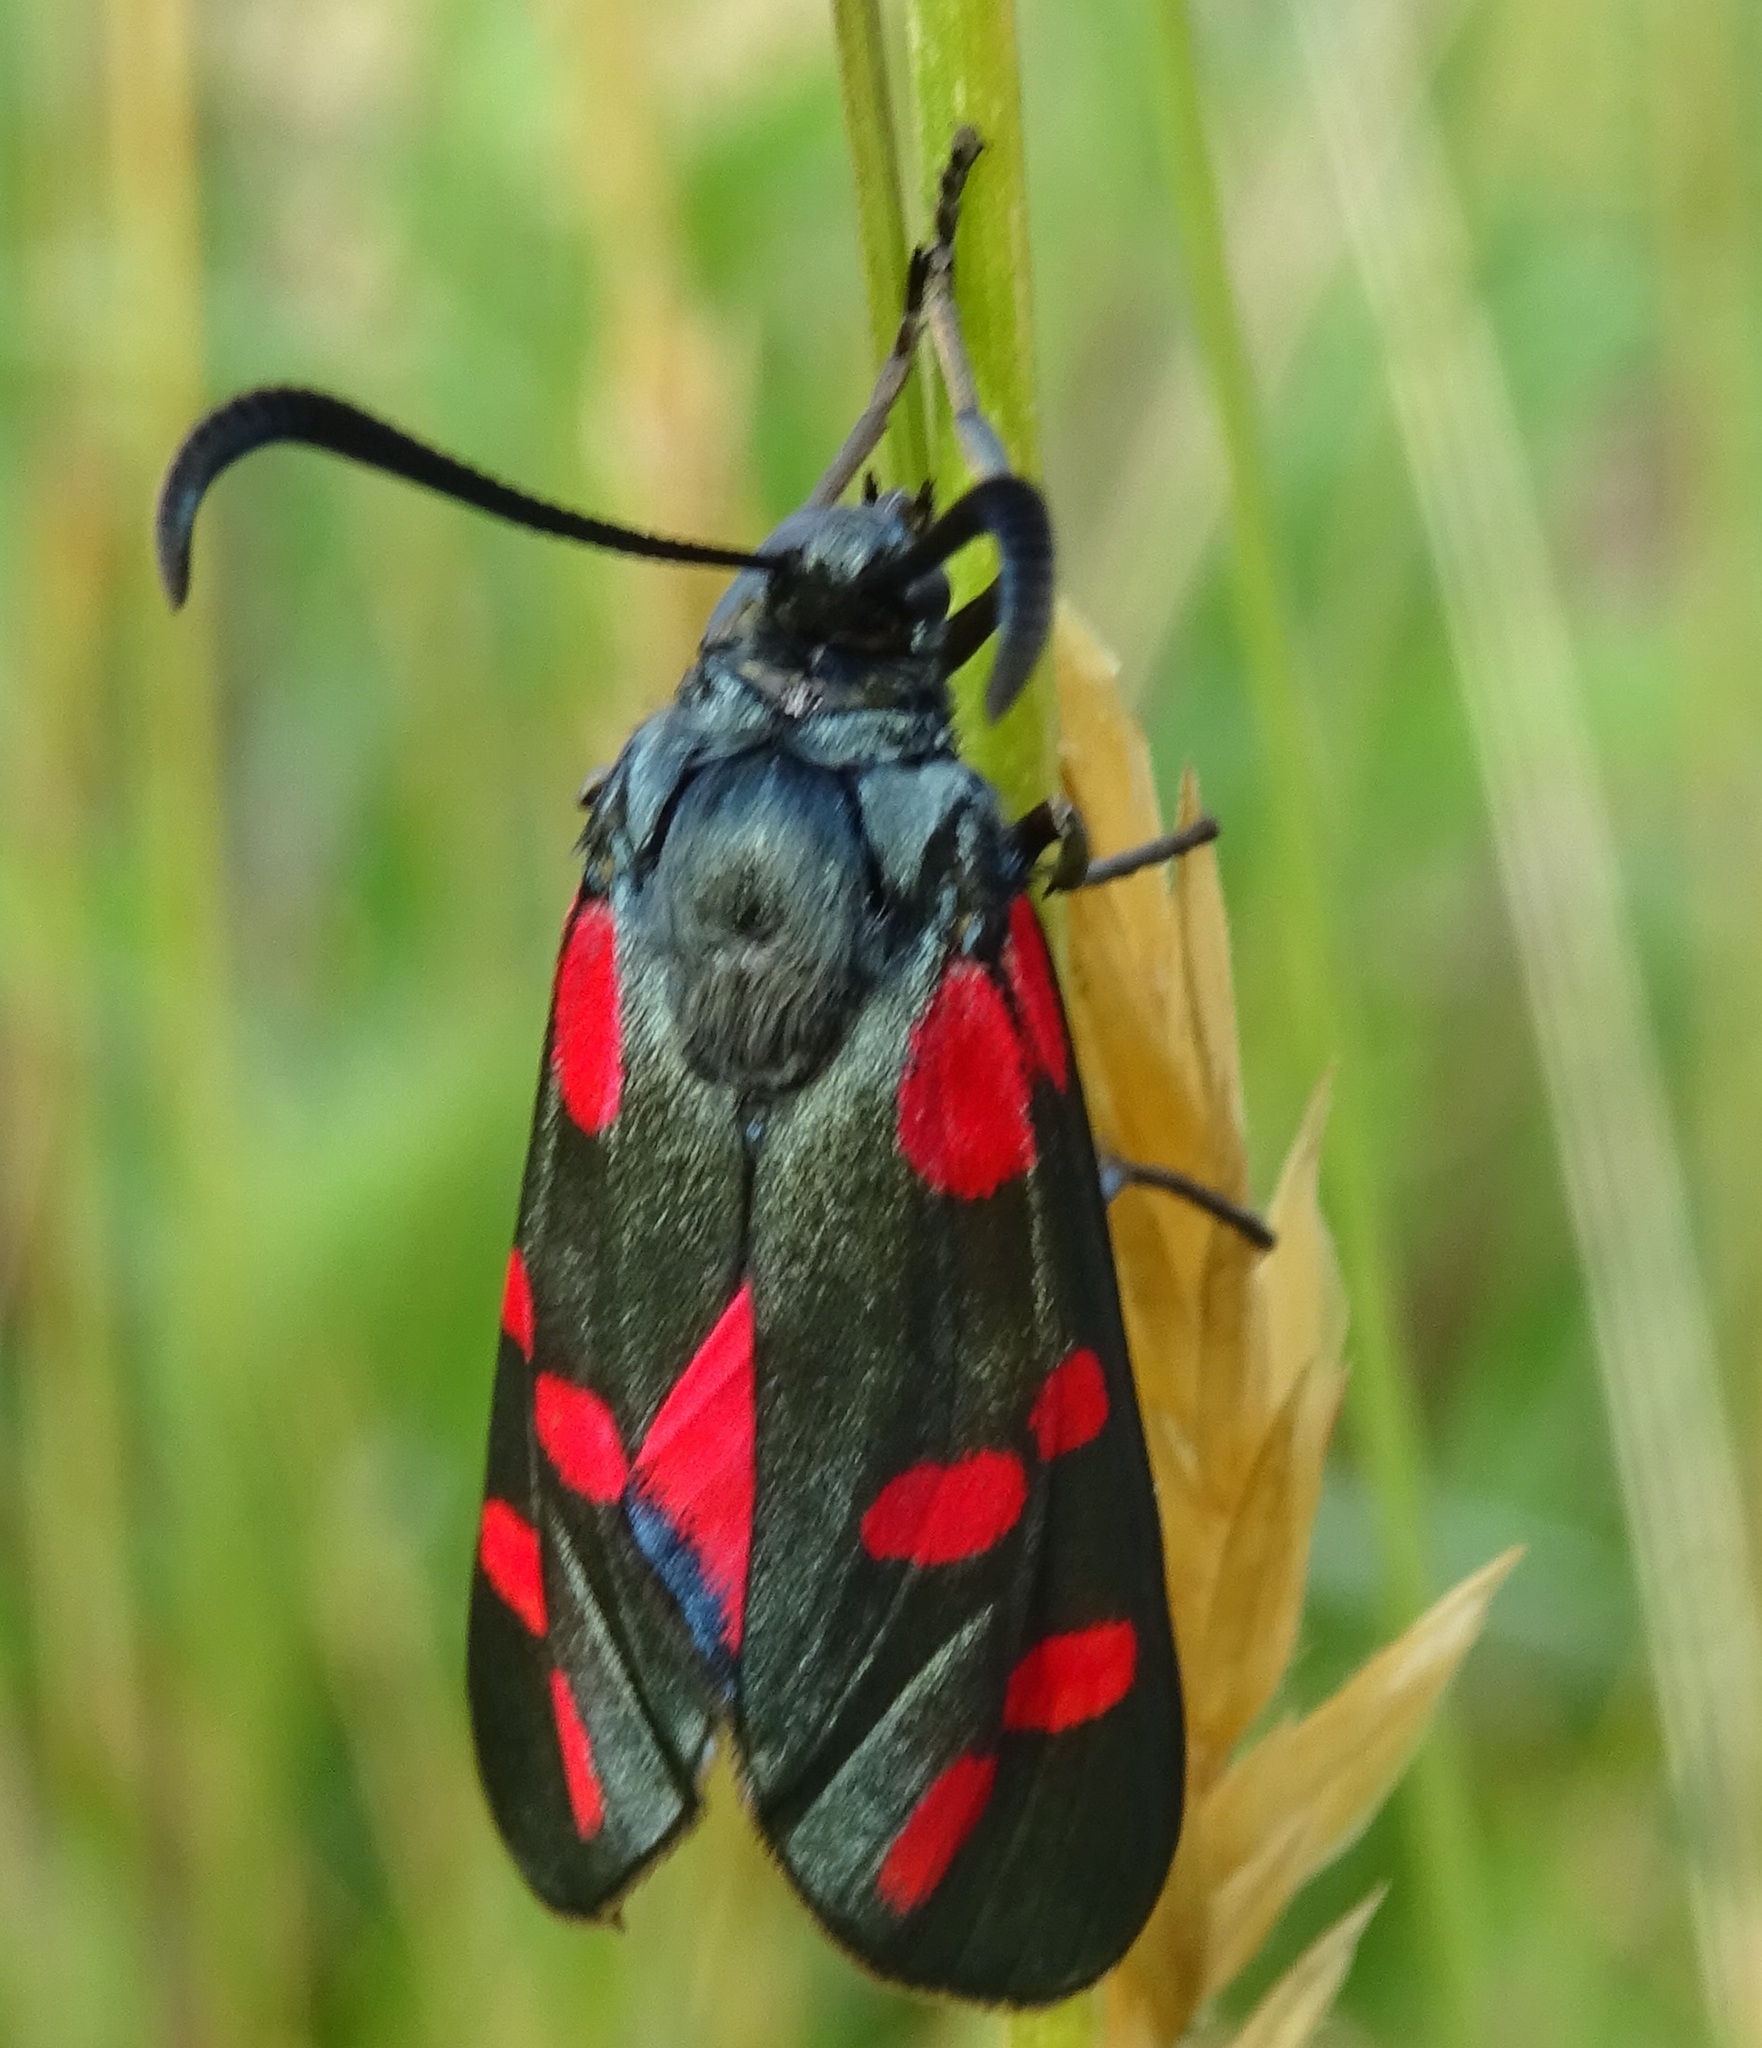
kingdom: Animalia
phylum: Arthropoda
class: Insecta
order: Lepidoptera
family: Zygaenidae
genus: Zygaena
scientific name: Zygaena filipendulae
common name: Six-spot burnet
